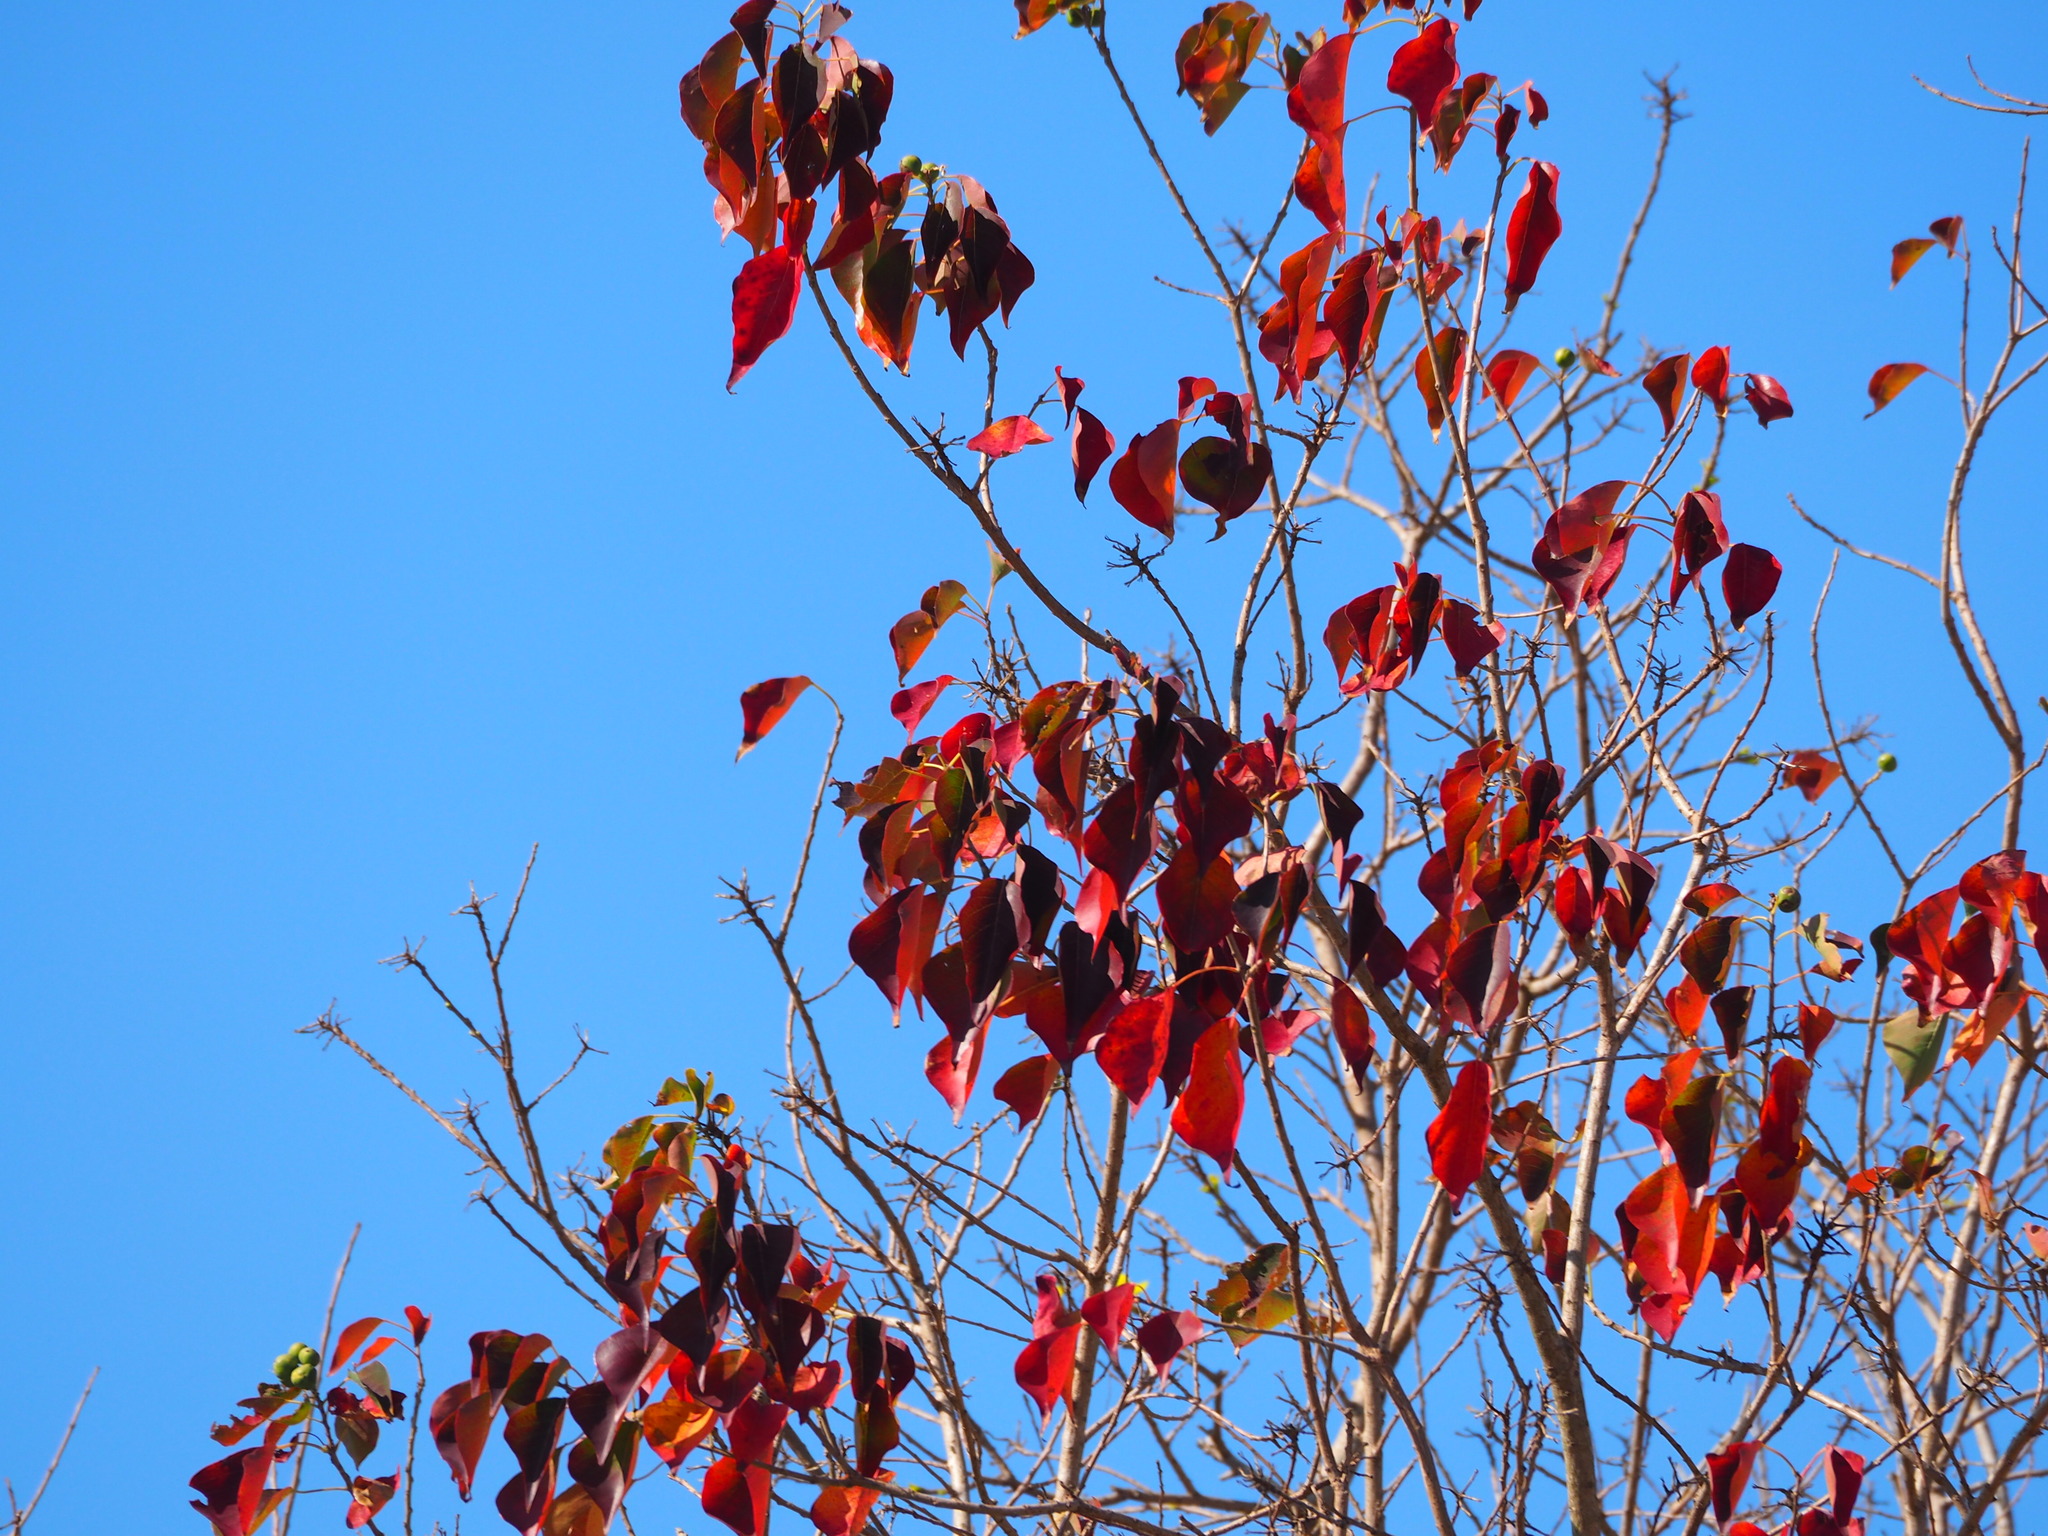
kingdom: Plantae
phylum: Tracheophyta
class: Magnoliopsida
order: Malpighiales
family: Euphorbiaceae
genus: Triadica
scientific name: Triadica sebifera
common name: Chinese tallow
